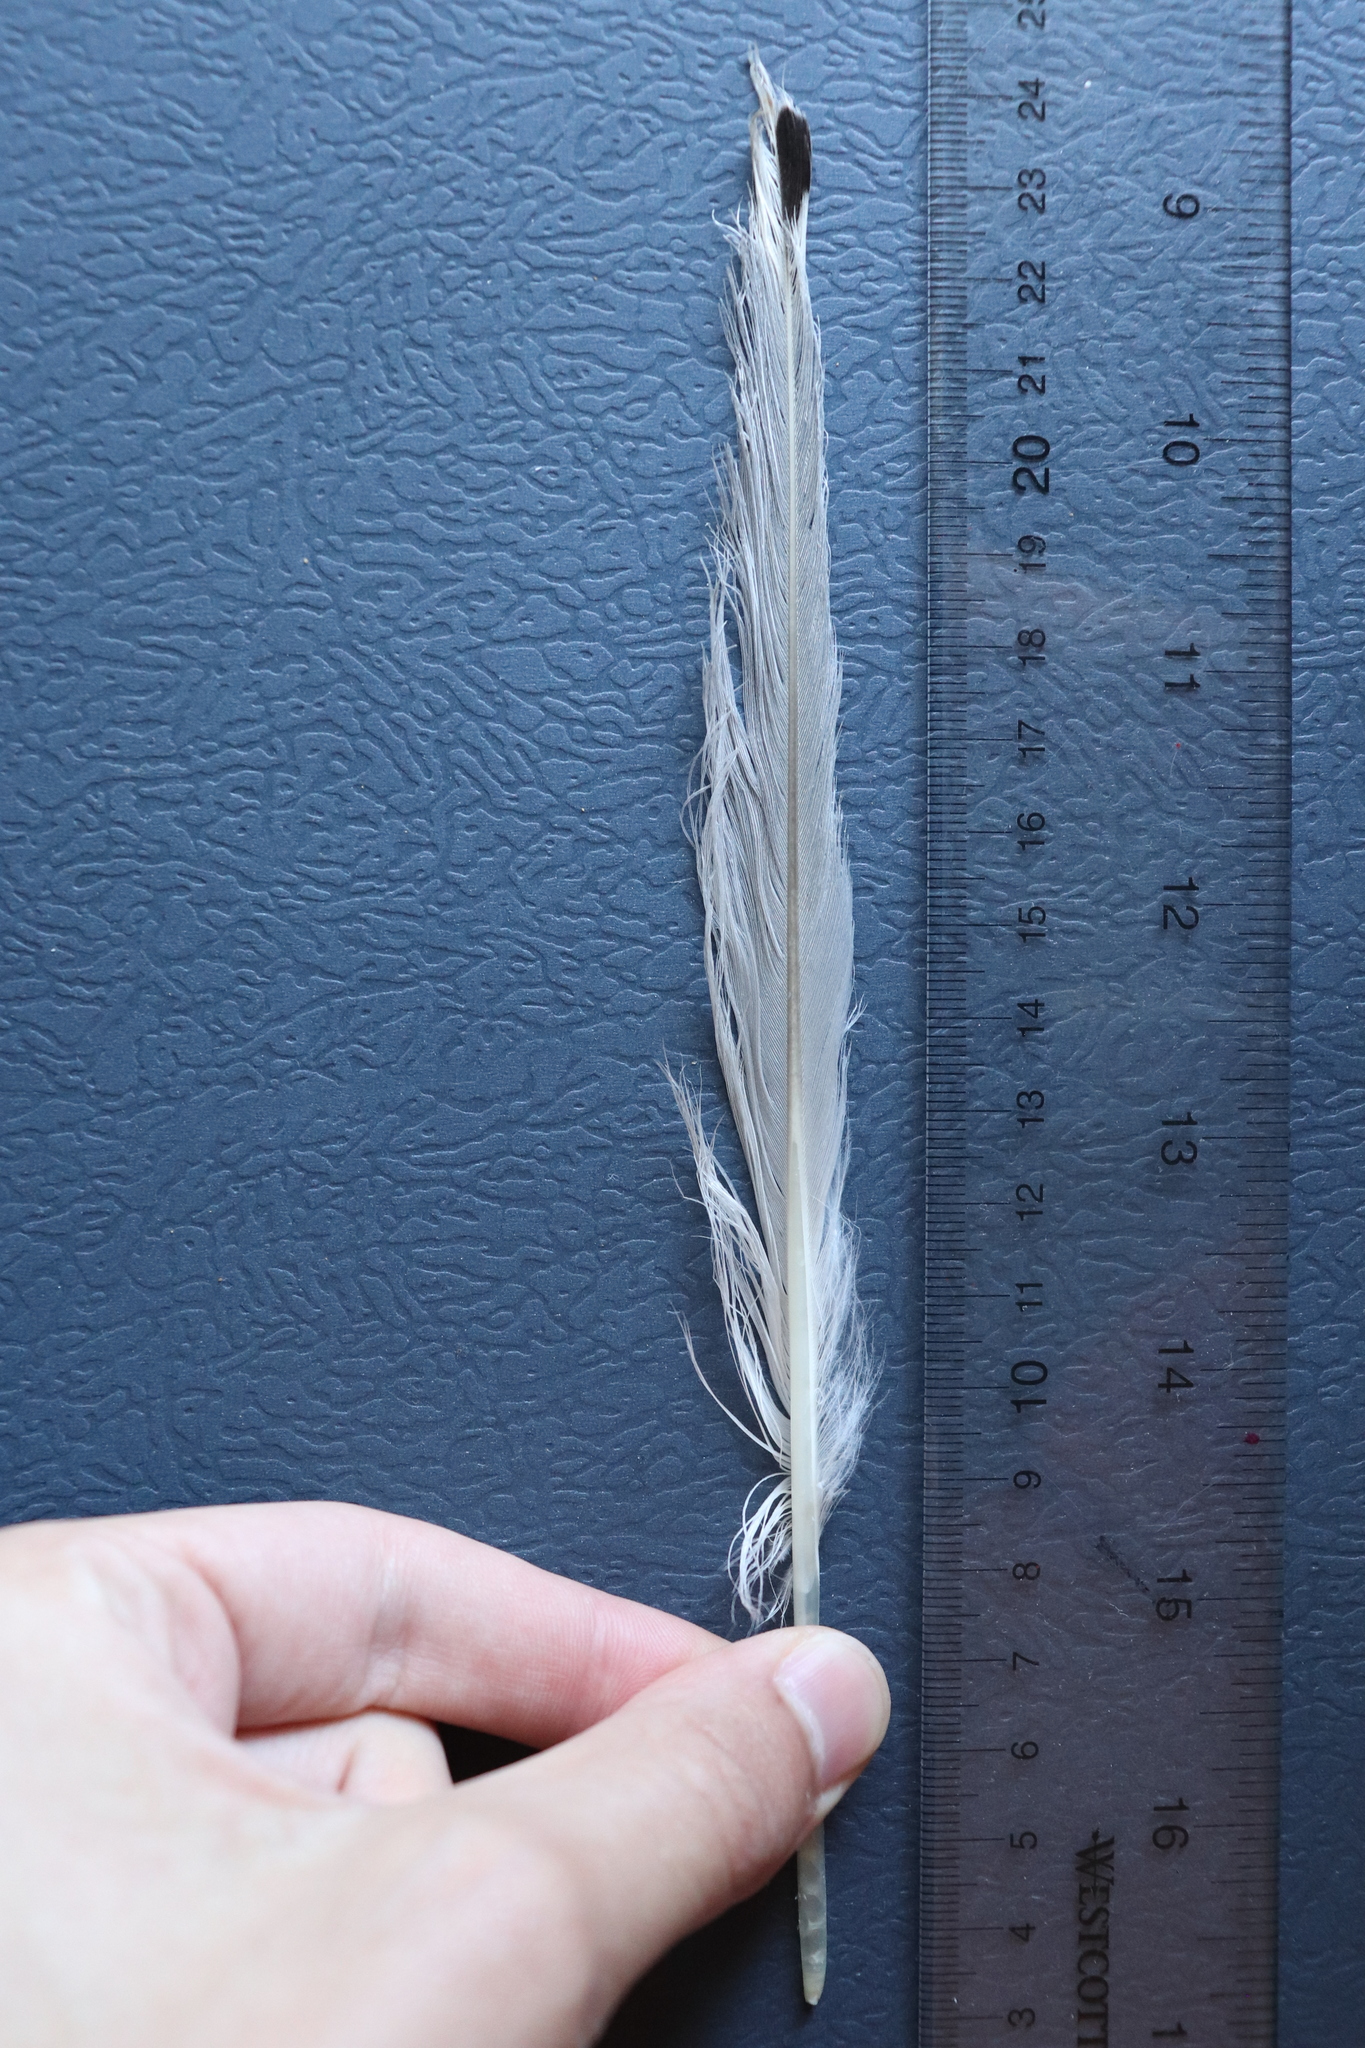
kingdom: Animalia
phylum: Chordata
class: Aves
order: Charadriiformes
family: Laridae
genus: Larus
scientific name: Larus delawarensis
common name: Ring-billed gull
